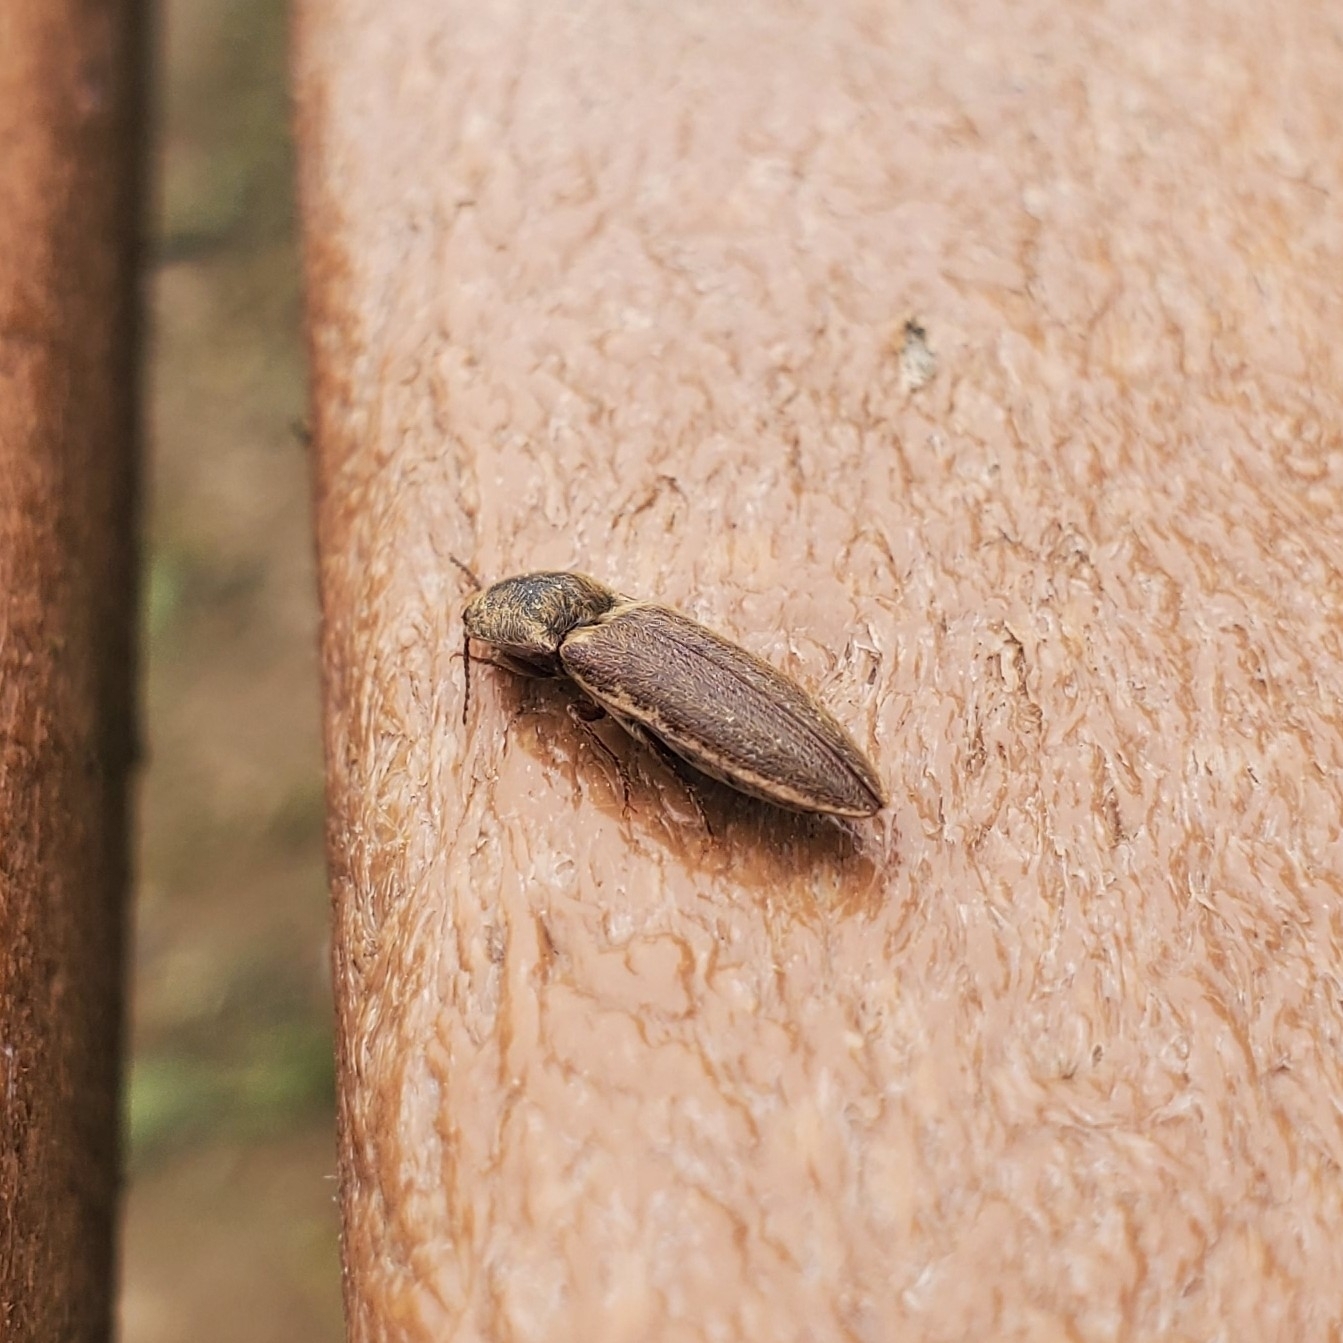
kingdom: Animalia
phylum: Arthropoda
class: Insecta
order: Coleoptera
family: Elateridae
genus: Gambrinus
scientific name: Gambrinus griseus
